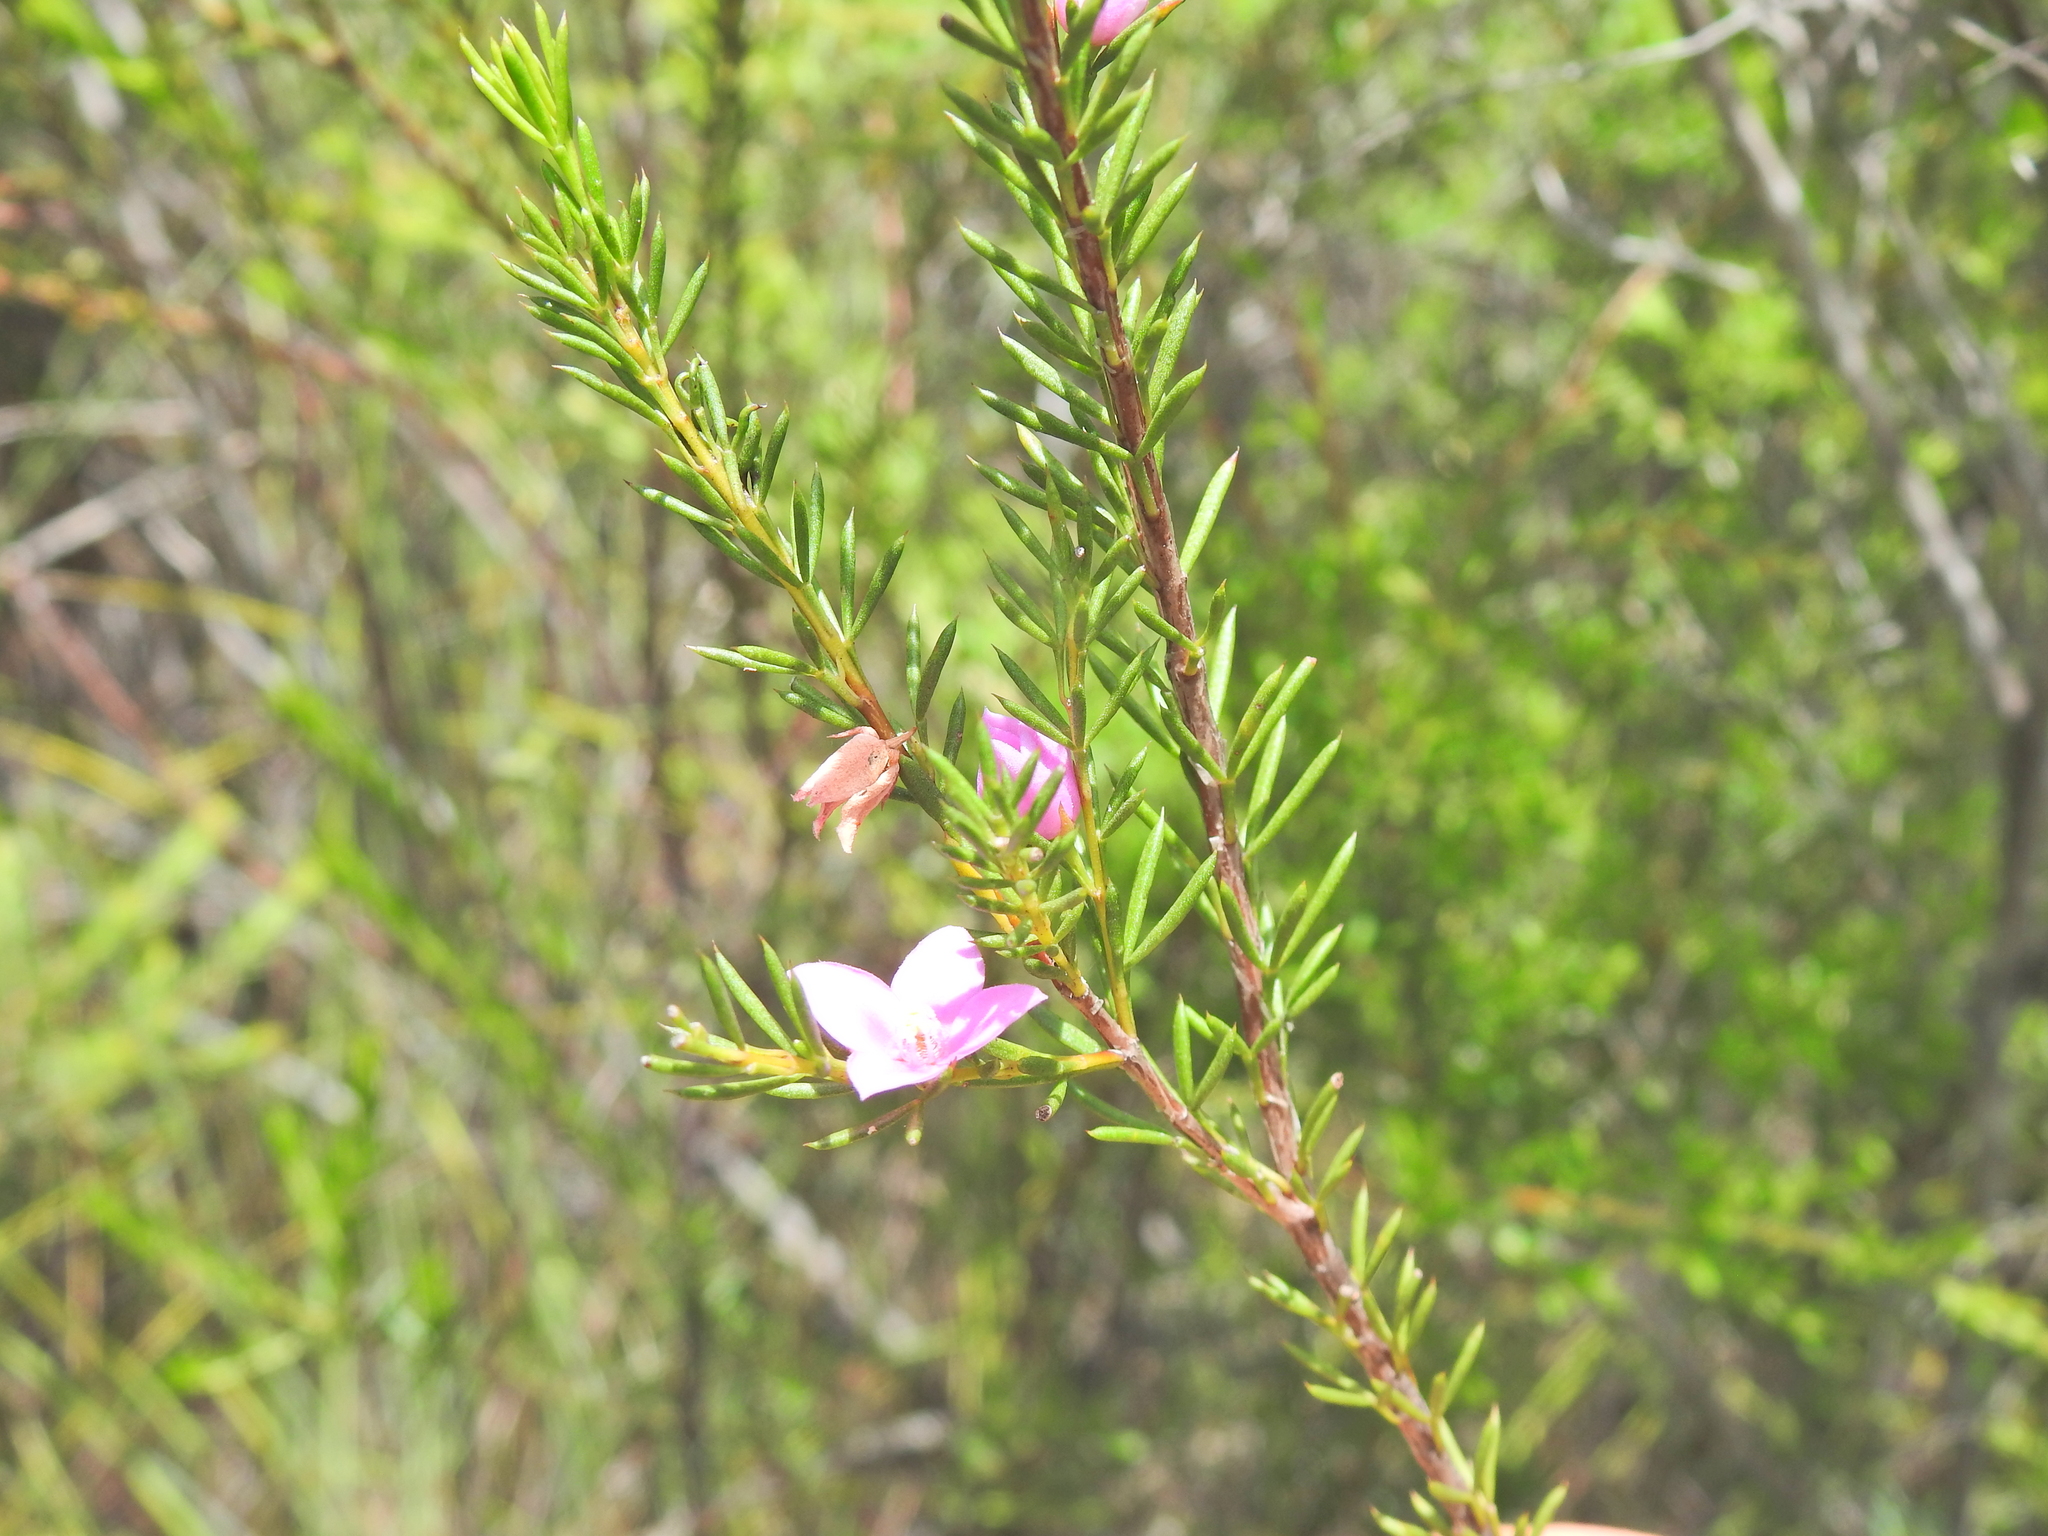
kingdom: Plantae
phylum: Tracheophyta
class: Magnoliopsida
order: Sapindales
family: Rutaceae
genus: Boronia
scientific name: Boronia falcifolia
